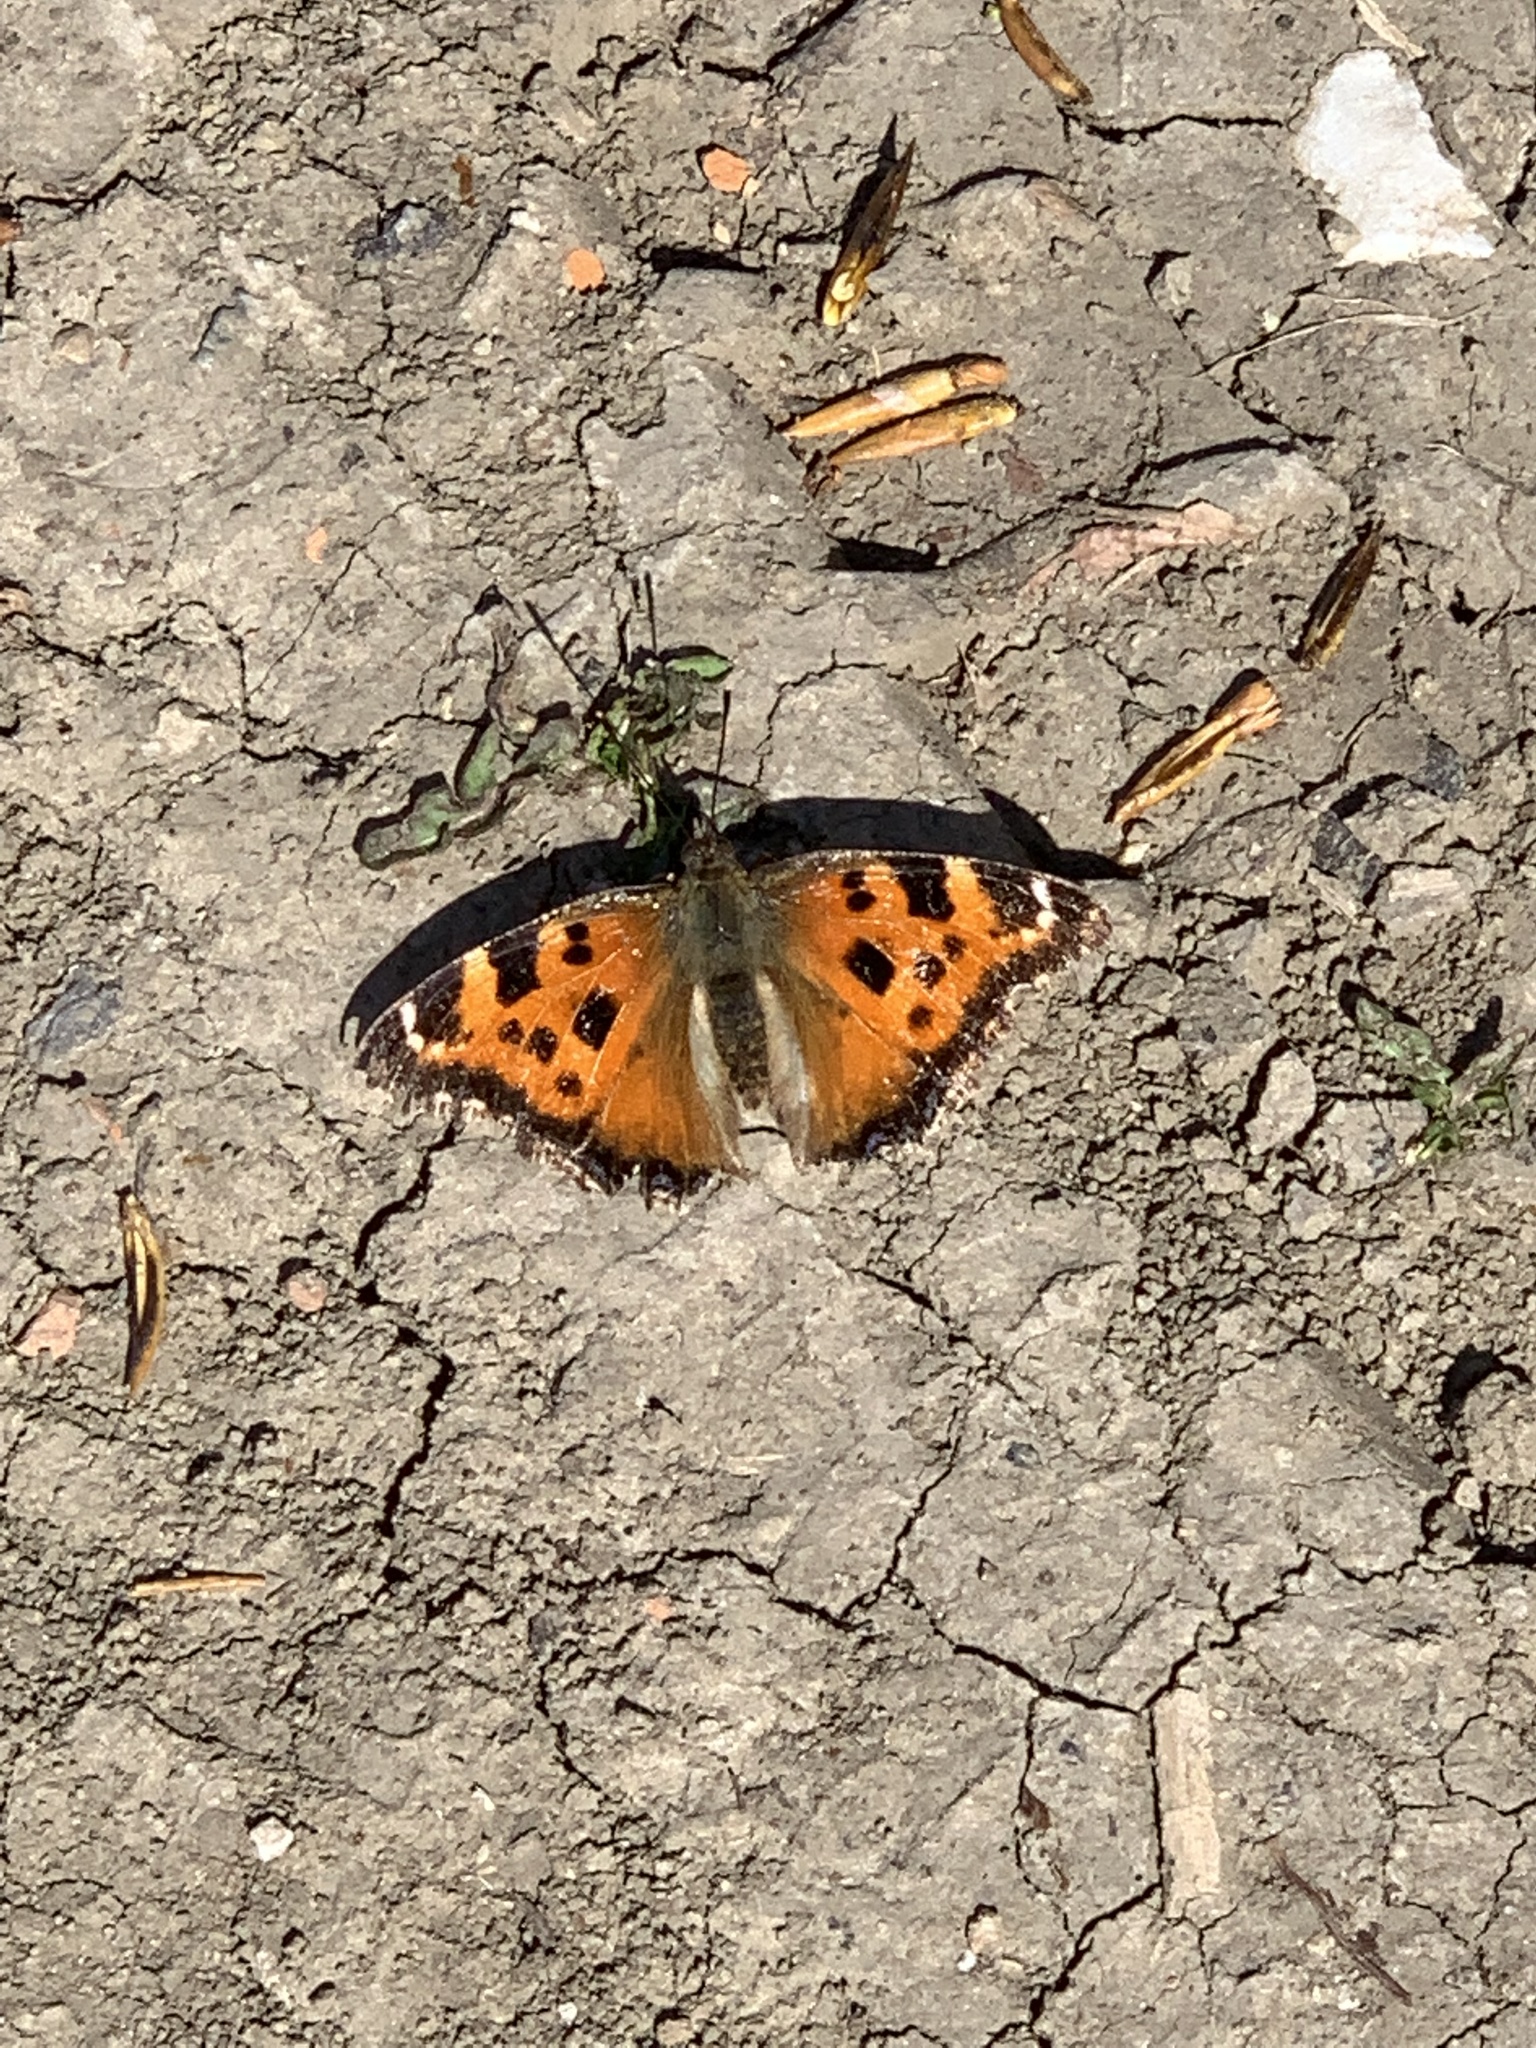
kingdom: Animalia
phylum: Arthropoda
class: Insecta
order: Lepidoptera
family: Nymphalidae
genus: Nymphalis
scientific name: Nymphalis xanthomelas
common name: Scarce tortoiseshell
